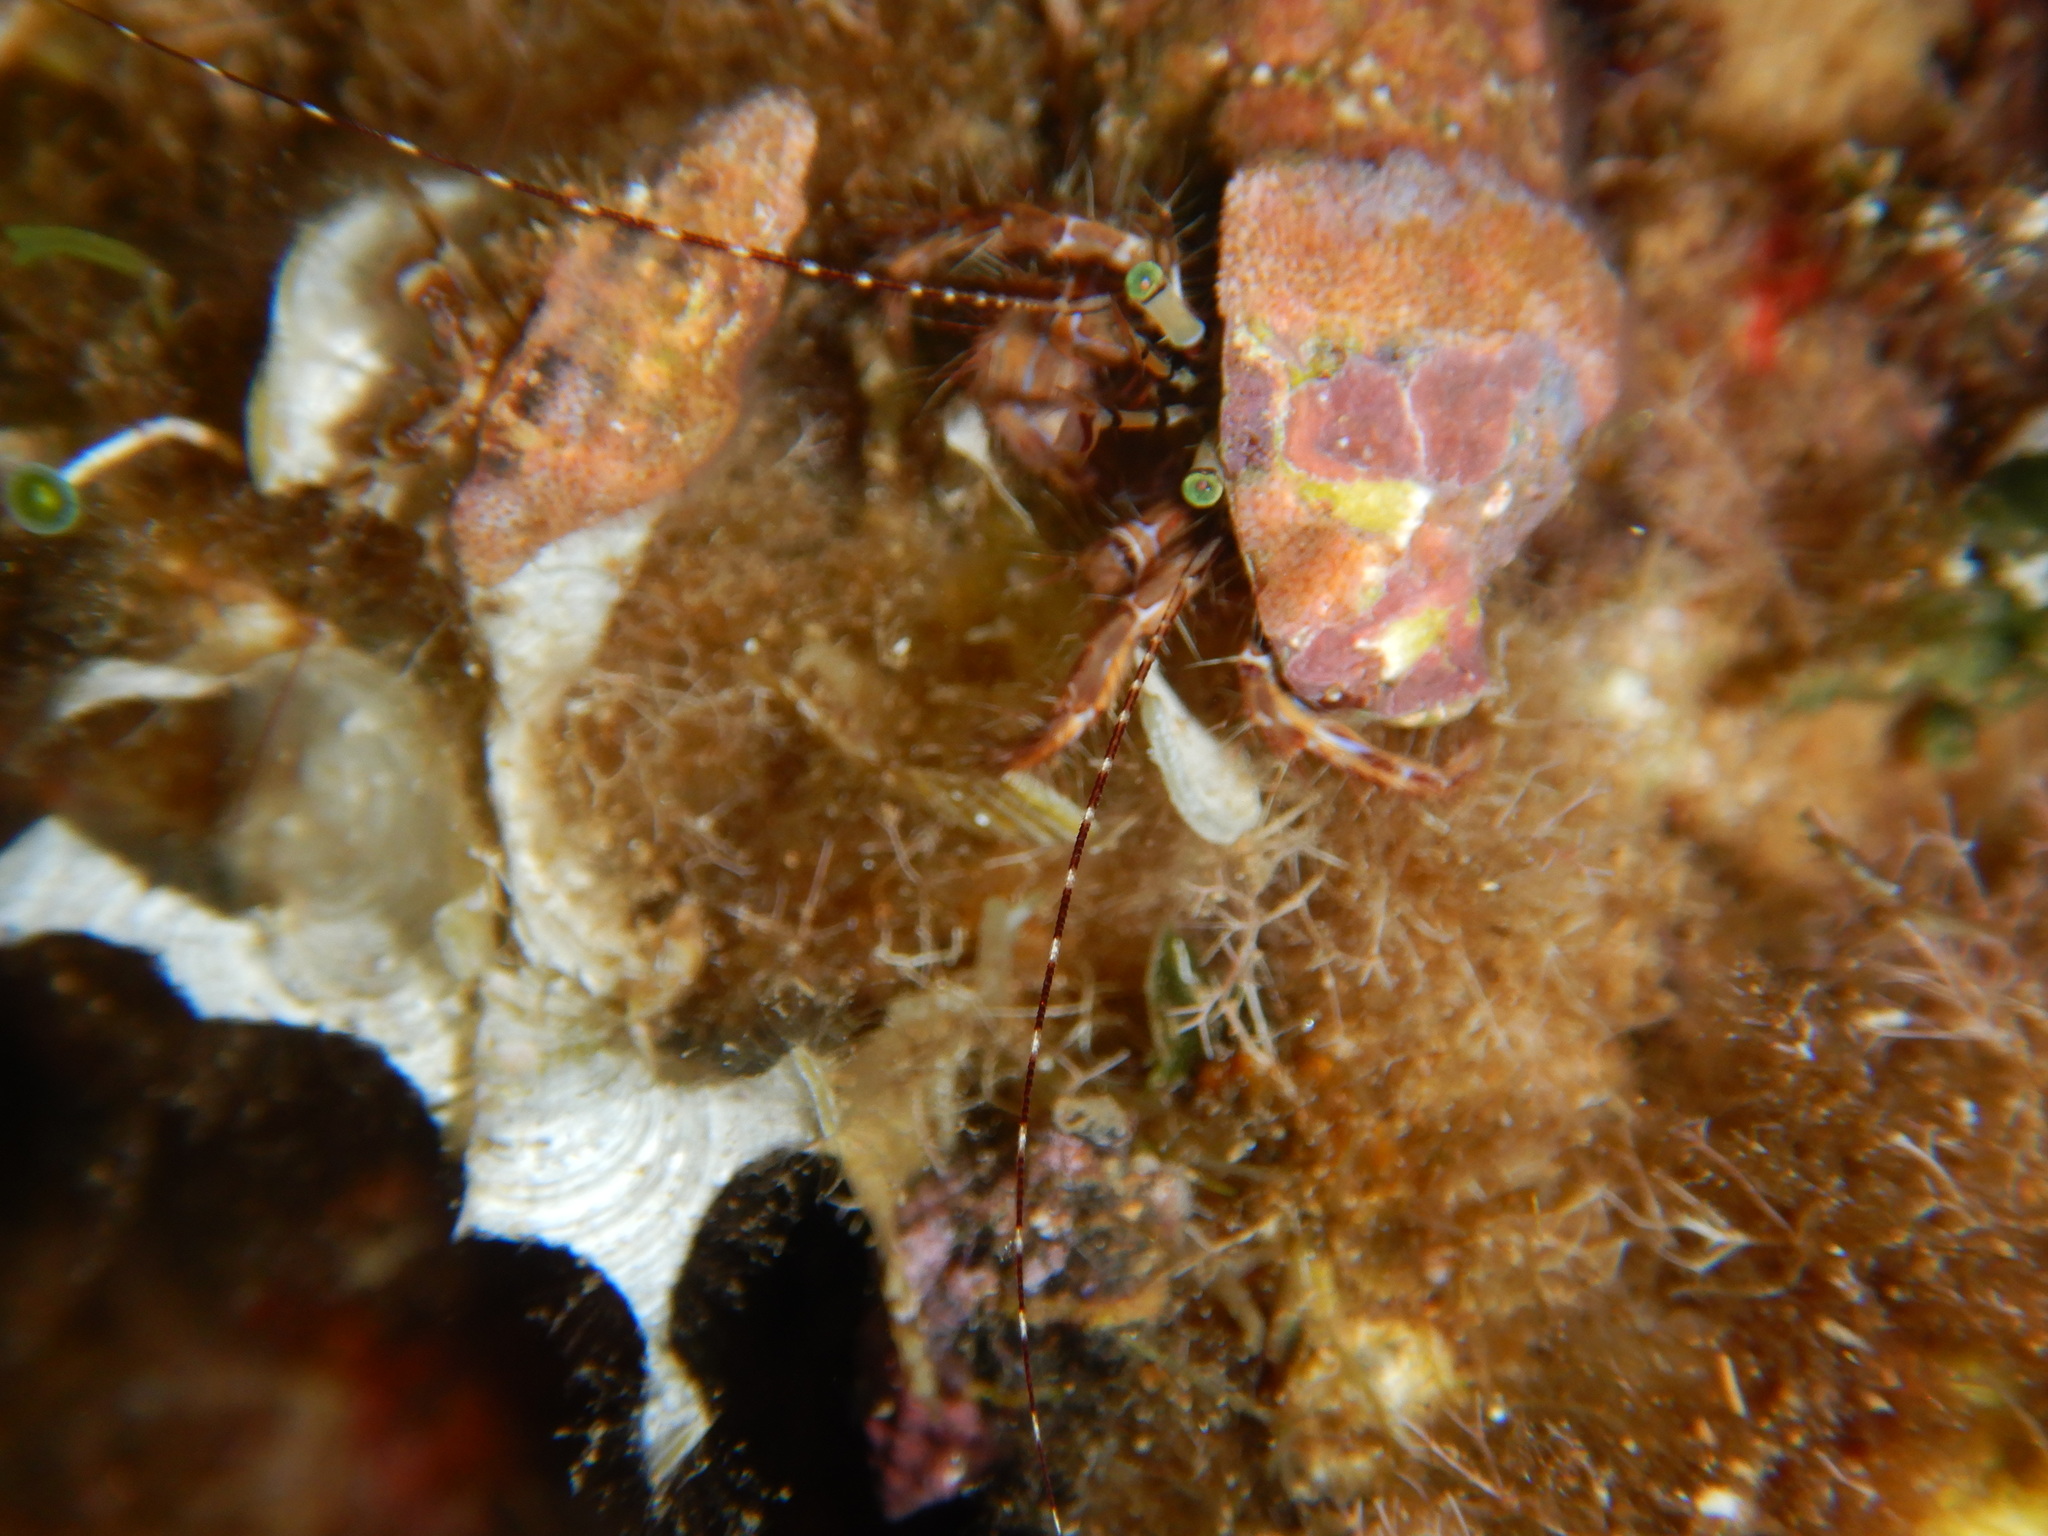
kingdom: Animalia
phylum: Arthropoda
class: Malacostraca
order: Decapoda
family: Paguridae
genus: Pagurus
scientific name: Pagurus anachoretus
